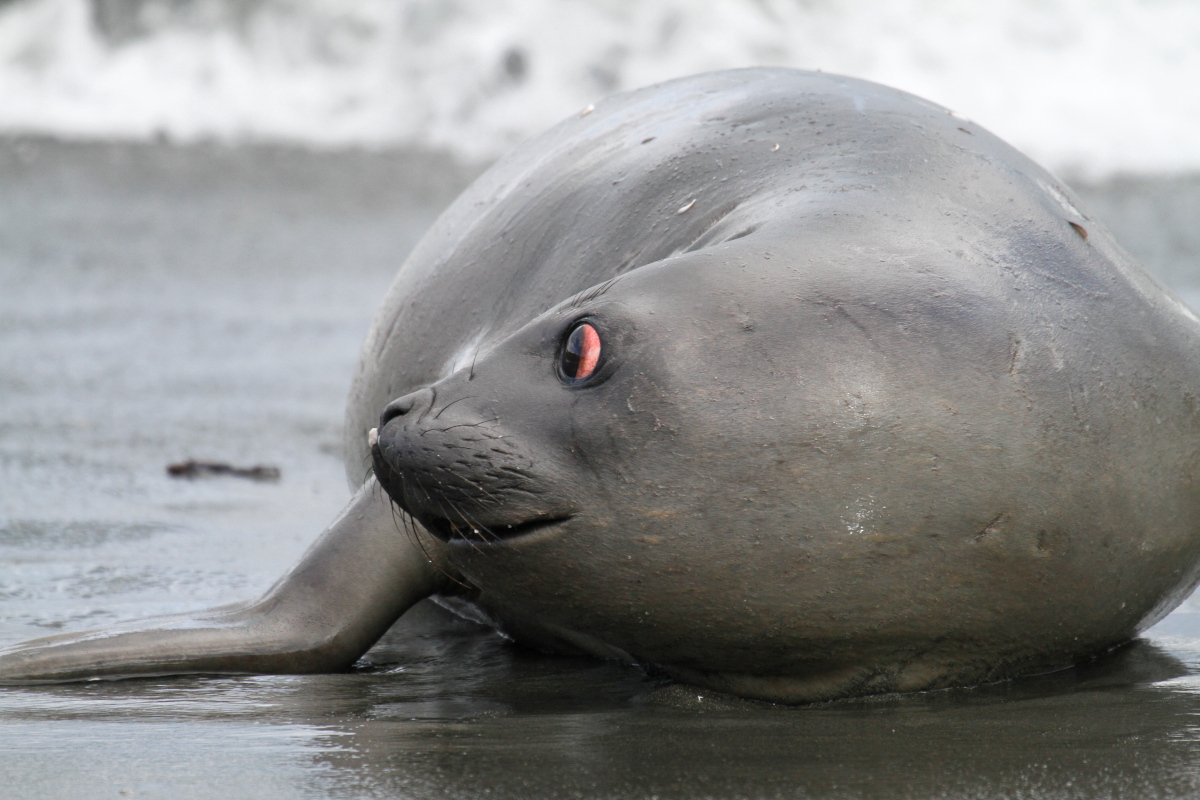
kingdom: Animalia
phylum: Chordata
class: Mammalia
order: Carnivora
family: Phocidae
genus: Mirounga
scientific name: Mirounga leonina
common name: Southern elephant seal
